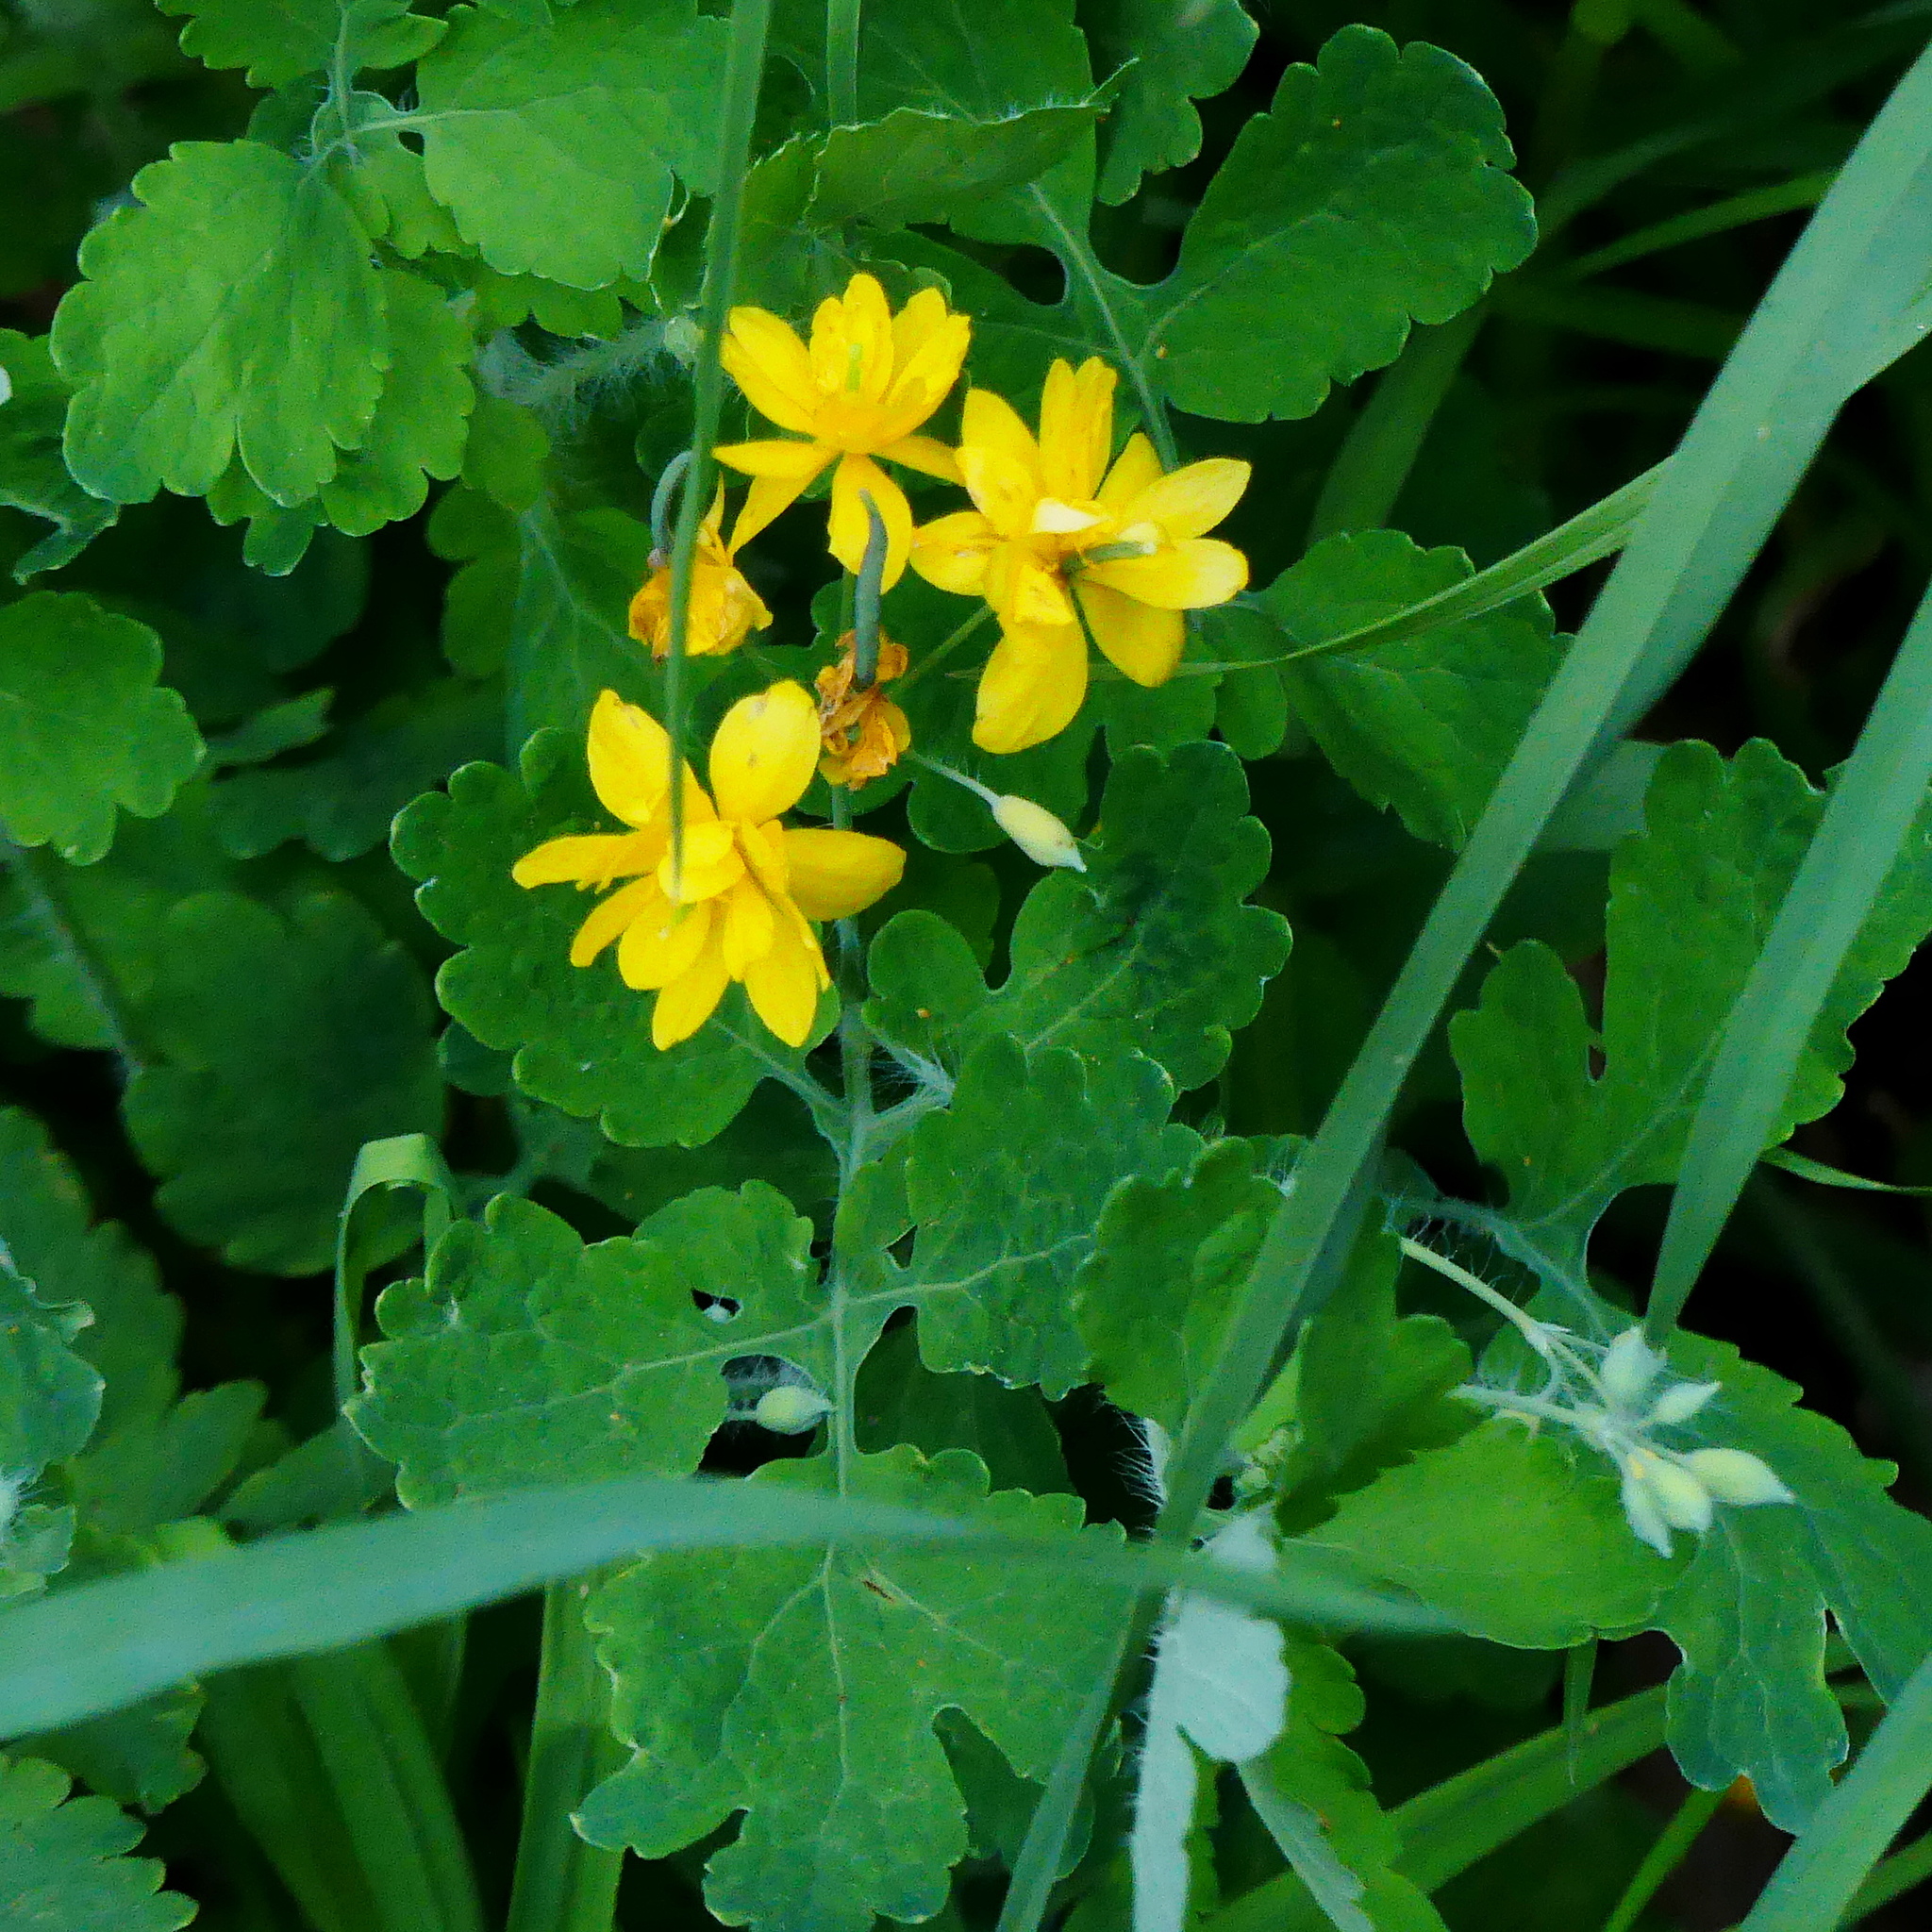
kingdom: Plantae
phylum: Tracheophyta
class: Magnoliopsida
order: Ranunculales
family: Papaveraceae
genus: Chelidonium
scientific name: Chelidonium majus
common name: Greater celandine
